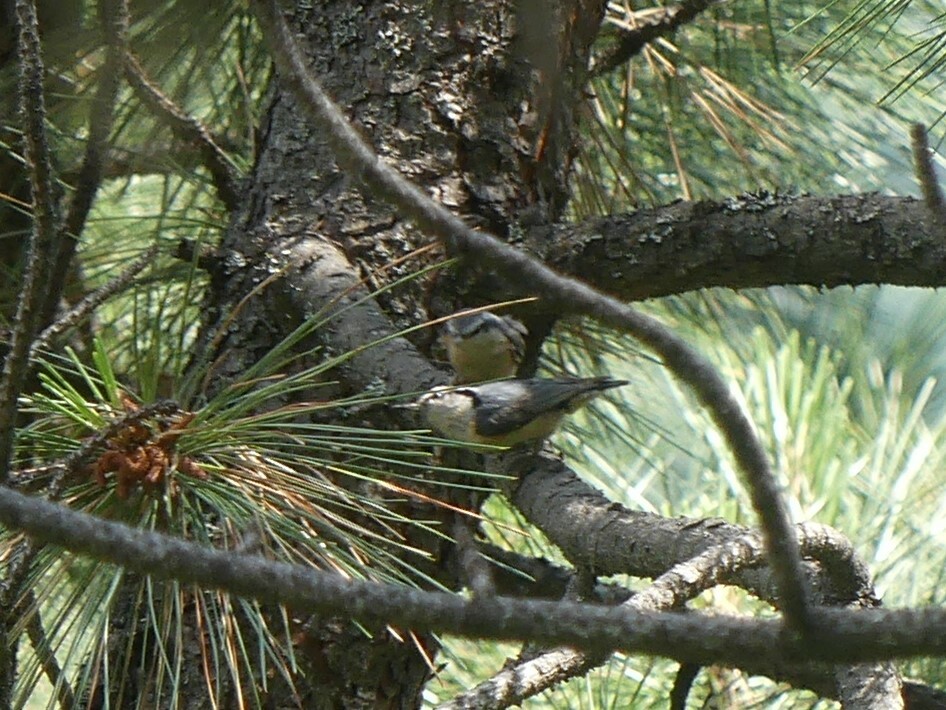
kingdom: Animalia
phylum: Chordata
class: Aves
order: Passeriformes
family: Sittidae
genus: Sitta
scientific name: Sitta canadensis
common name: Red-breasted nuthatch
